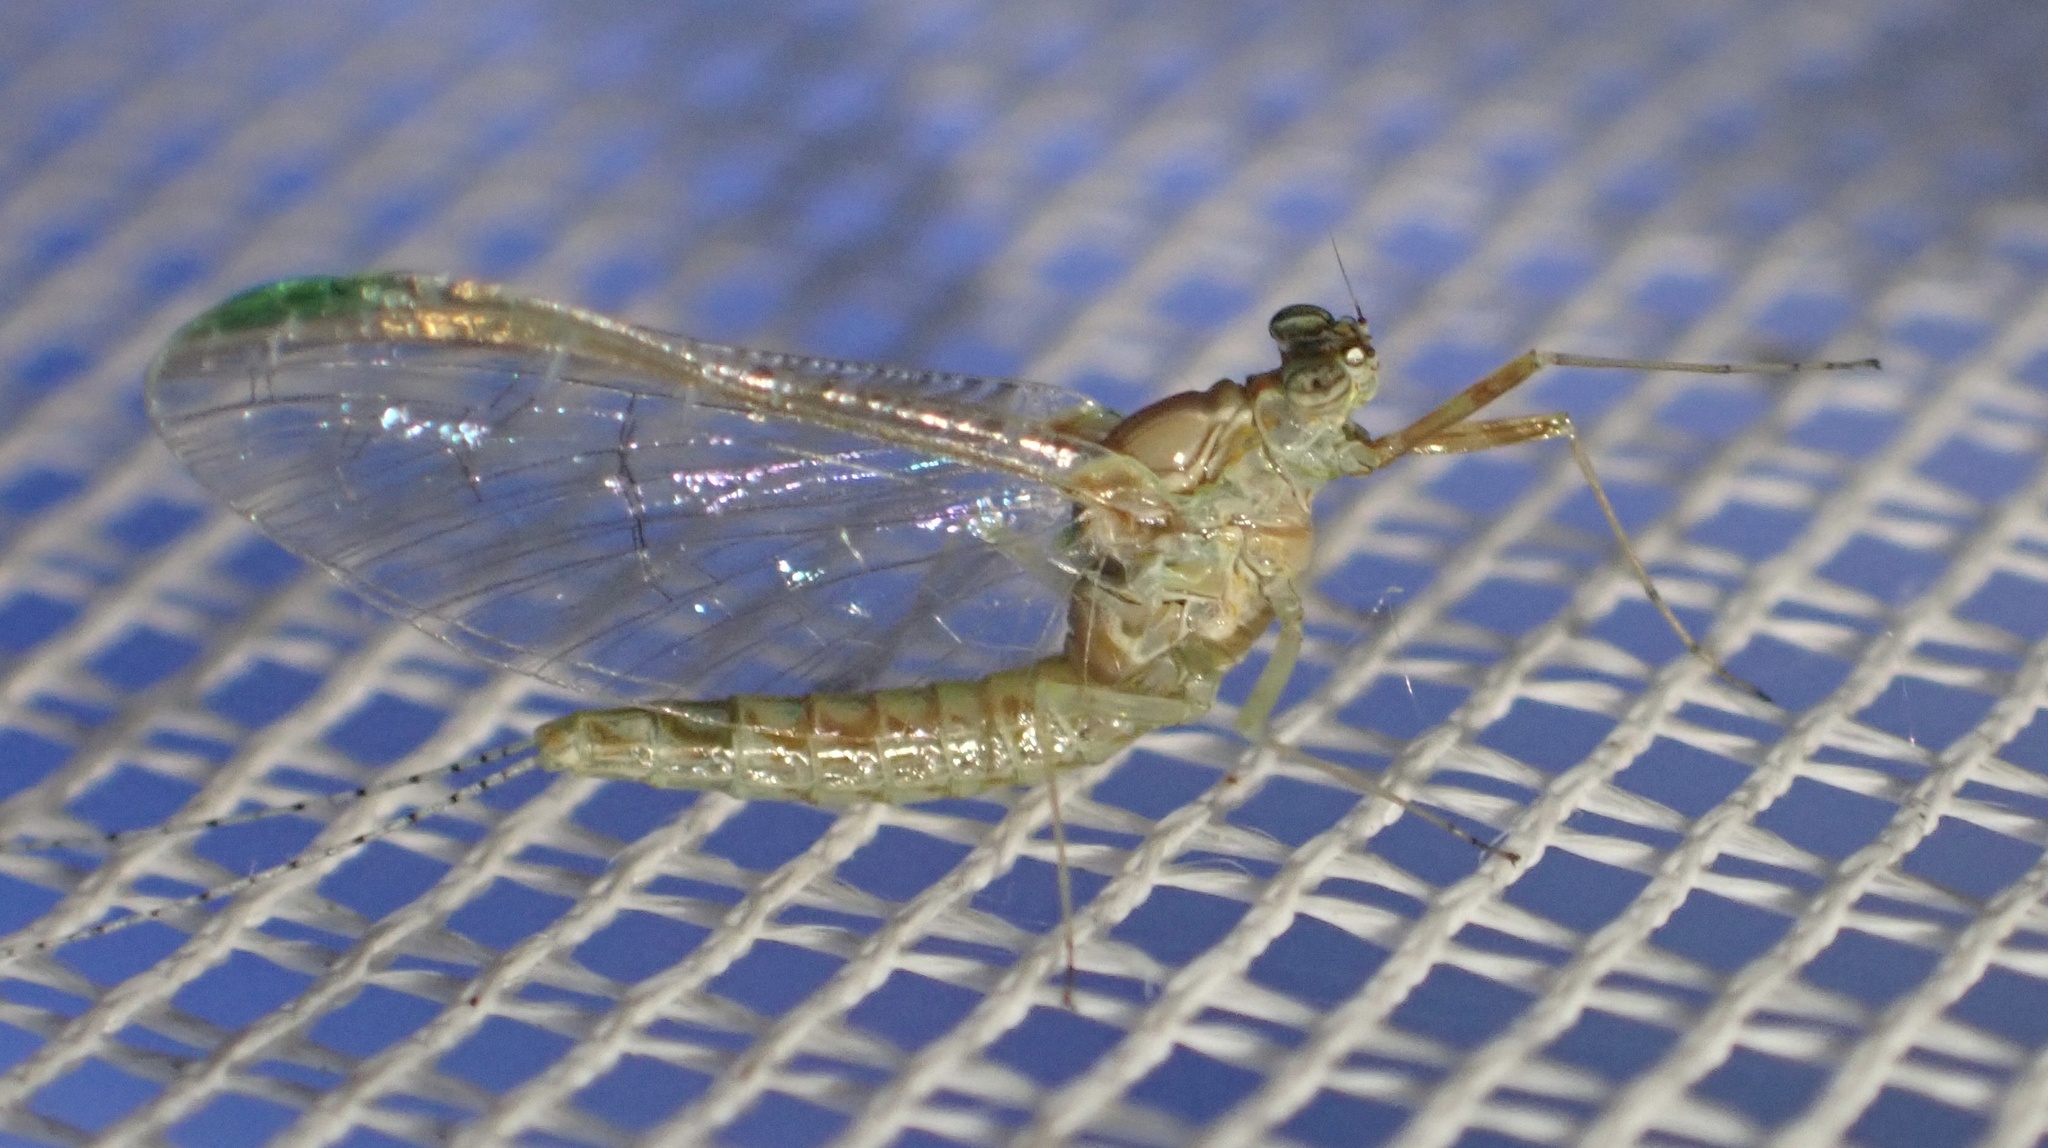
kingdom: Animalia
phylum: Arthropoda
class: Insecta
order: Ephemeroptera
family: Baetidae
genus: Cloeon
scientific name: Cloeon dipterum
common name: Pond olive
